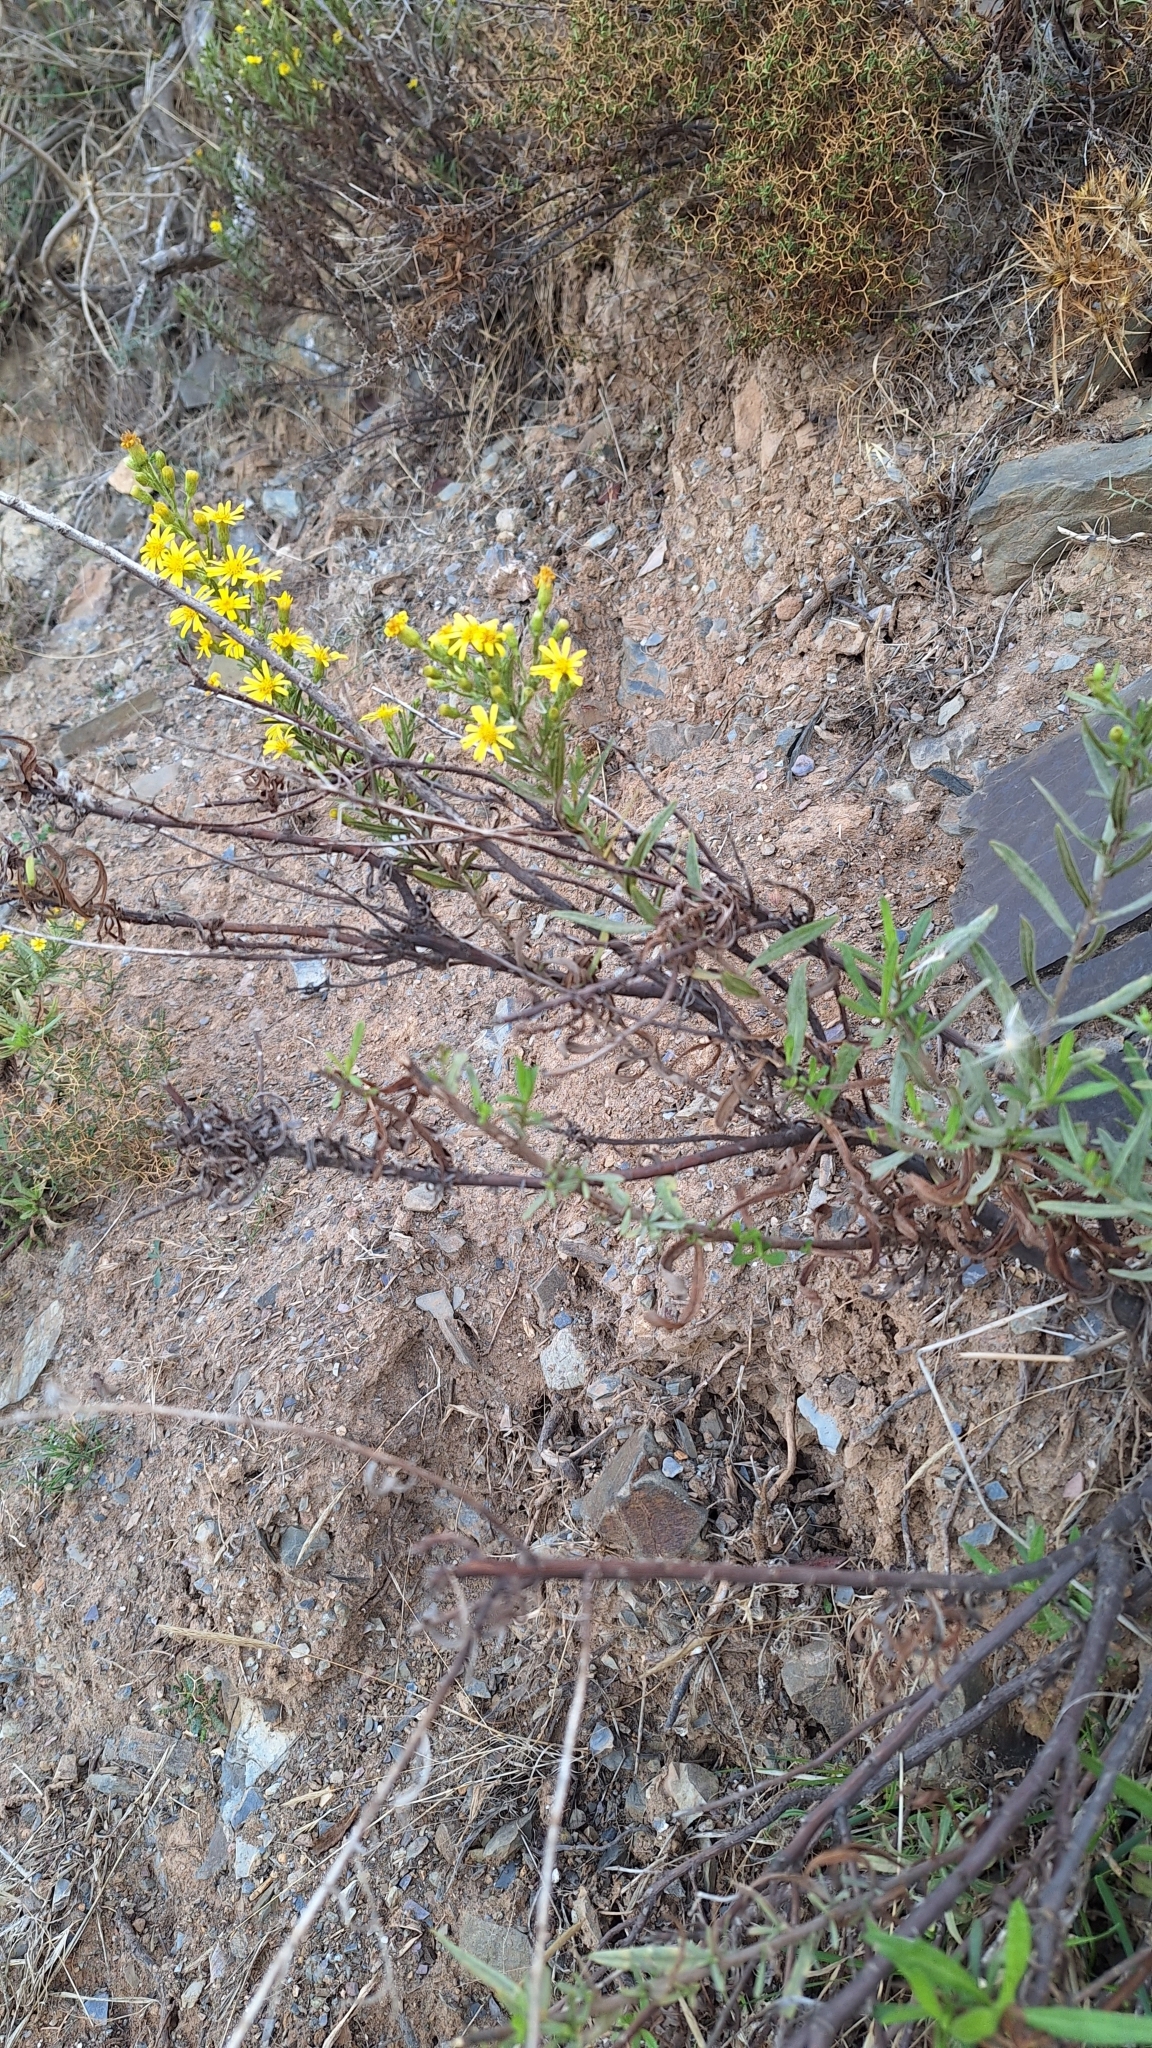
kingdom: Plantae
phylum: Tracheophyta
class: Magnoliopsida
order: Asterales
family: Asteraceae
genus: Dittrichia
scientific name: Dittrichia viscosa
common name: Woody fleabane
